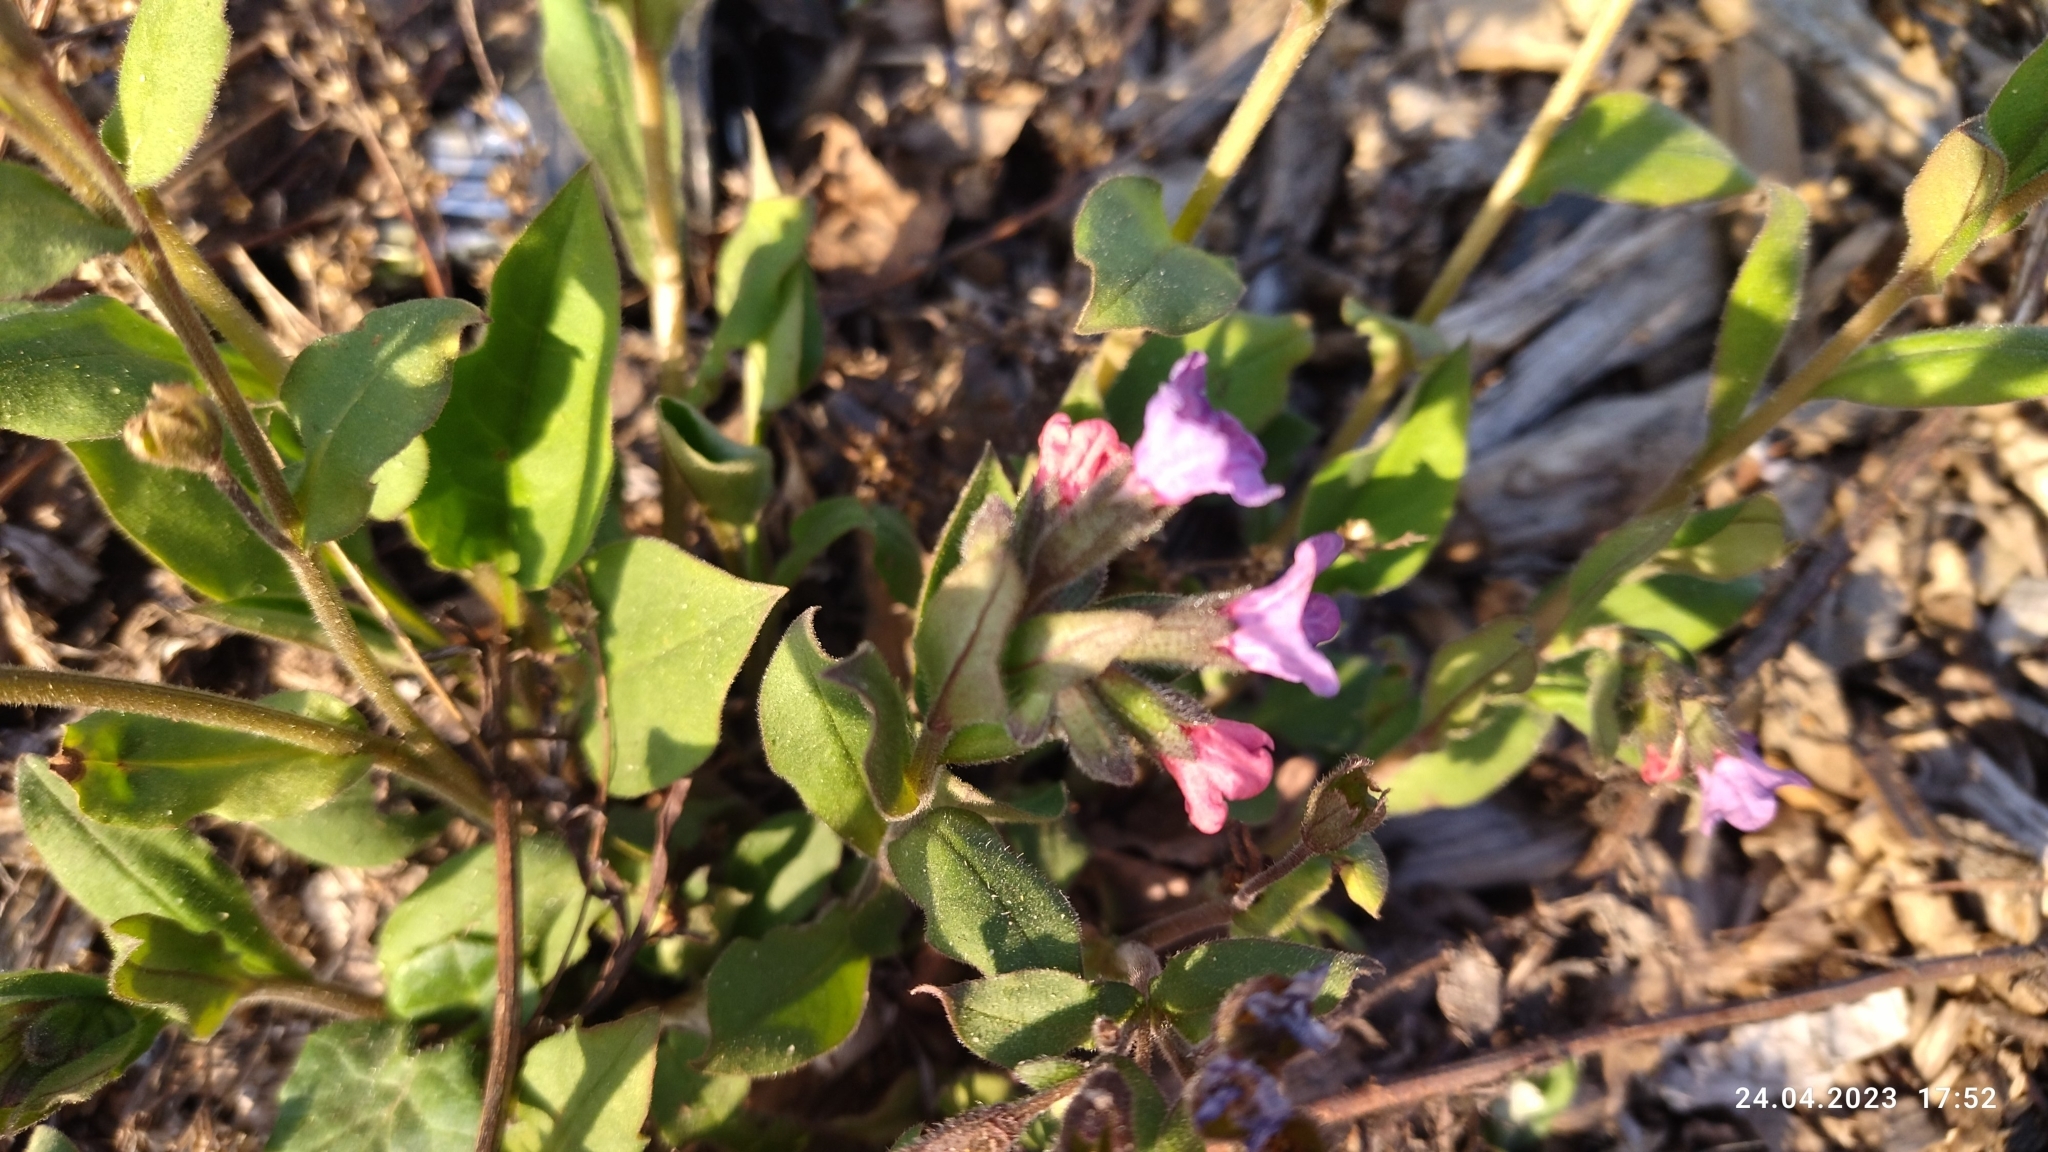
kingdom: Plantae
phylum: Tracheophyta
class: Magnoliopsida
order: Boraginales
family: Boraginaceae
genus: Pulmonaria
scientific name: Pulmonaria obscura
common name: Suffolk lungwort
